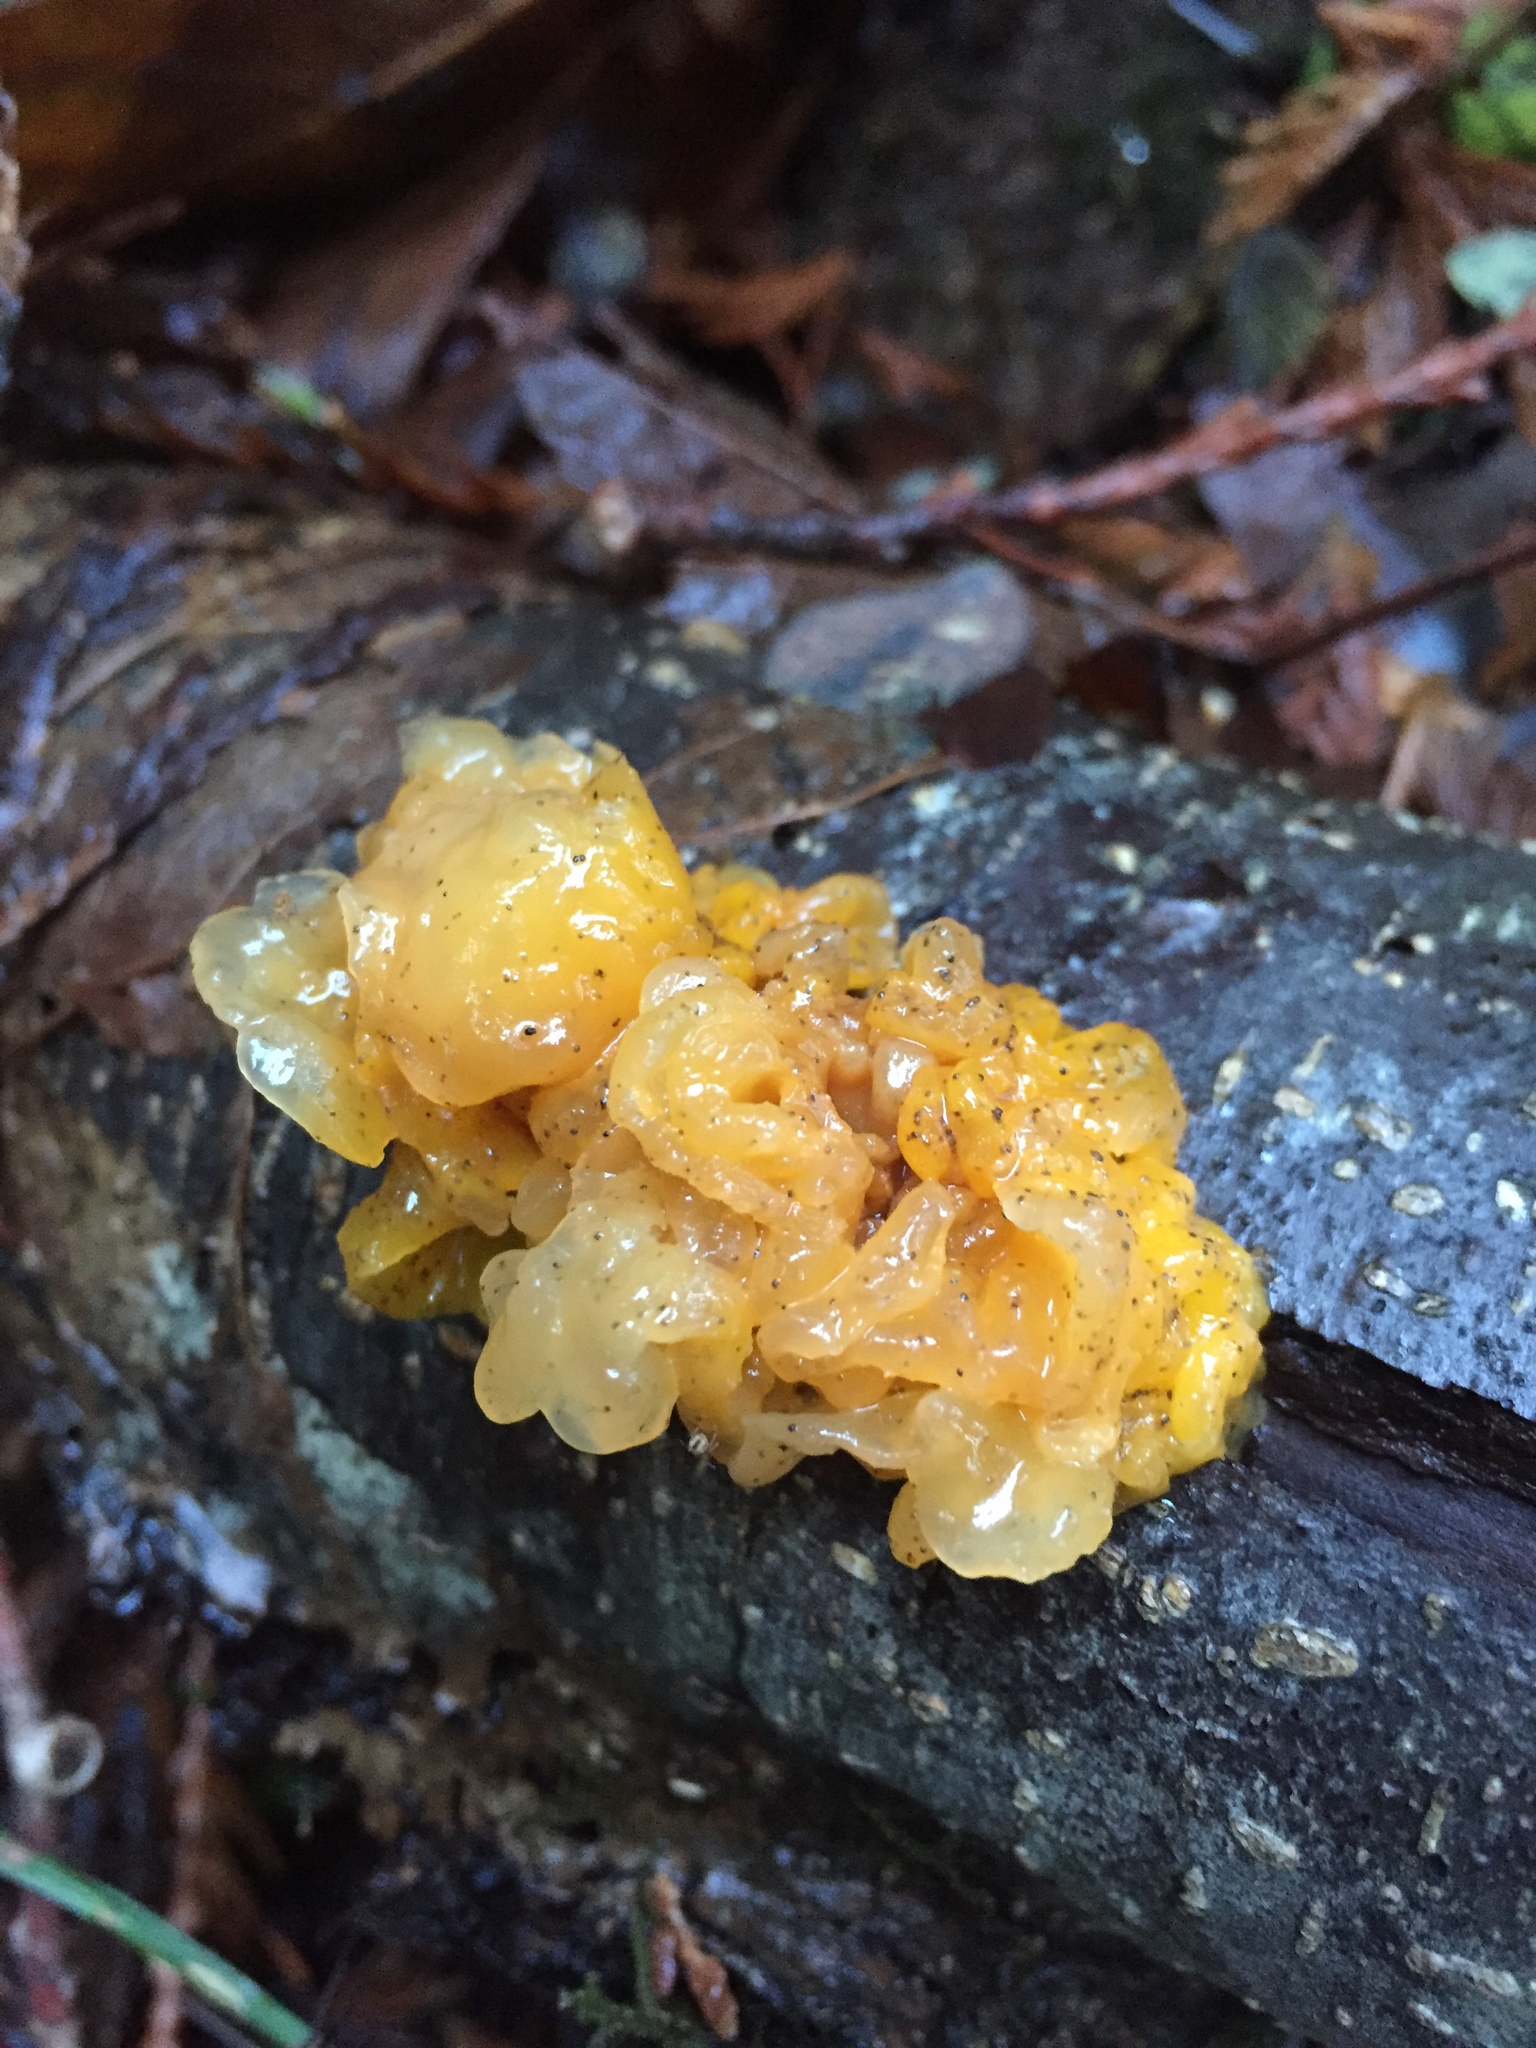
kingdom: Fungi
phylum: Basidiomycota
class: Tremellomycetes
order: Tremellales
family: Tremellaceae
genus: Tremella
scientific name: Tremella mesenterica
